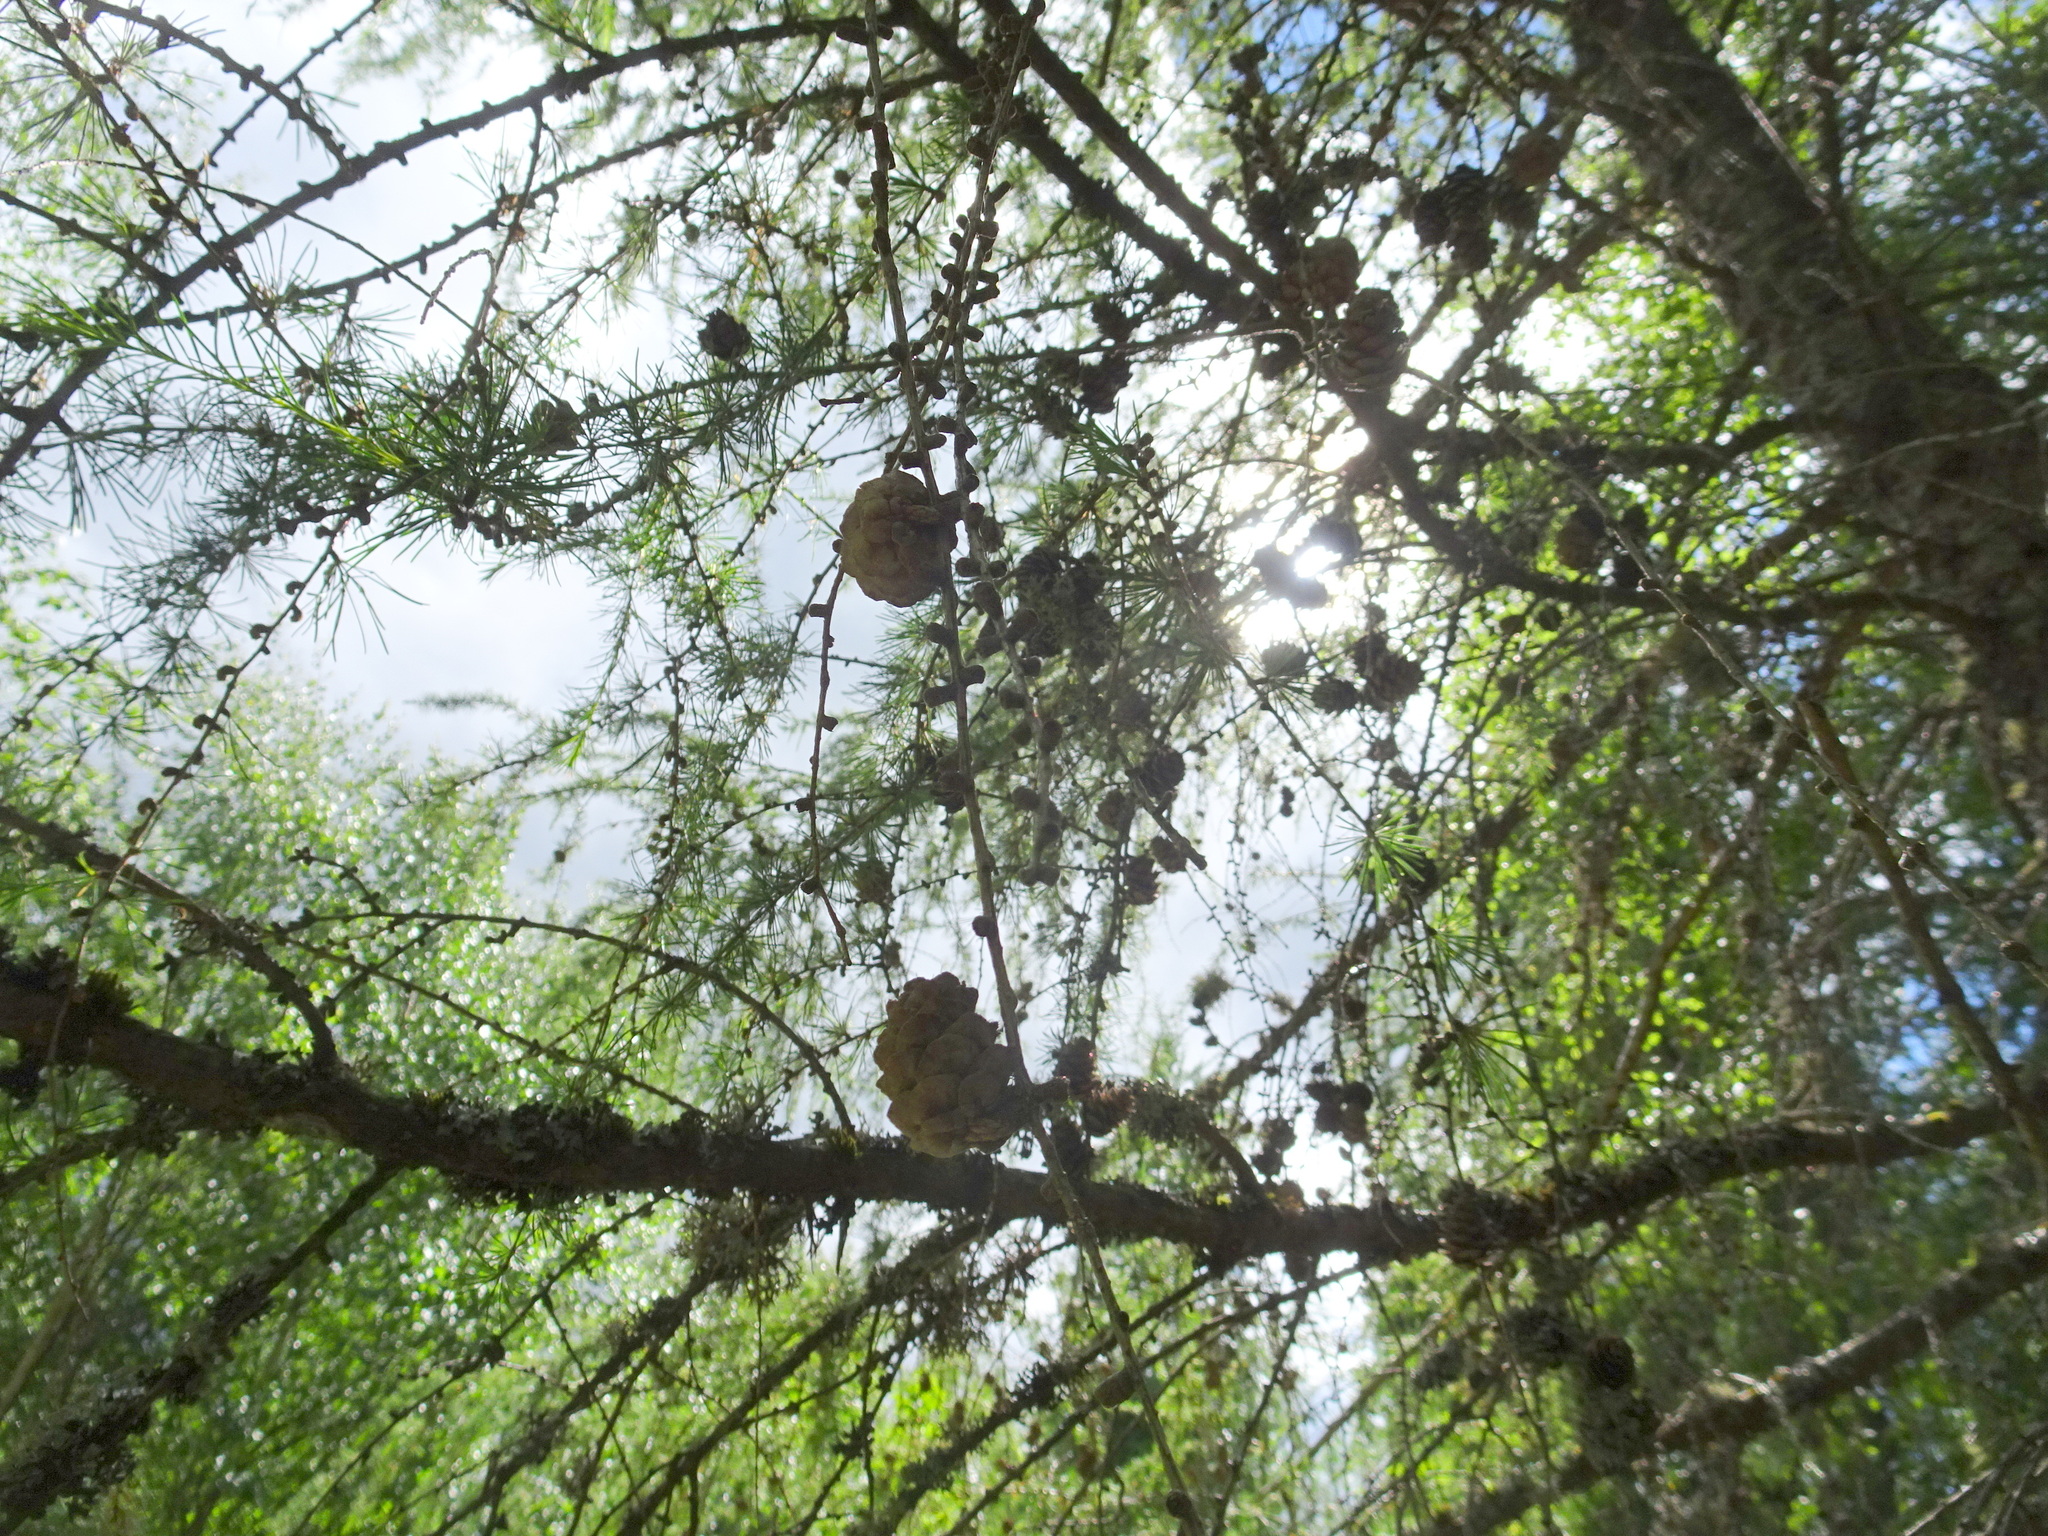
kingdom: Plantae
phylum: Tracheophyta
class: Pinopsida
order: Pinales
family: Pinaceae
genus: Larix
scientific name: Larix decidua
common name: European larch
